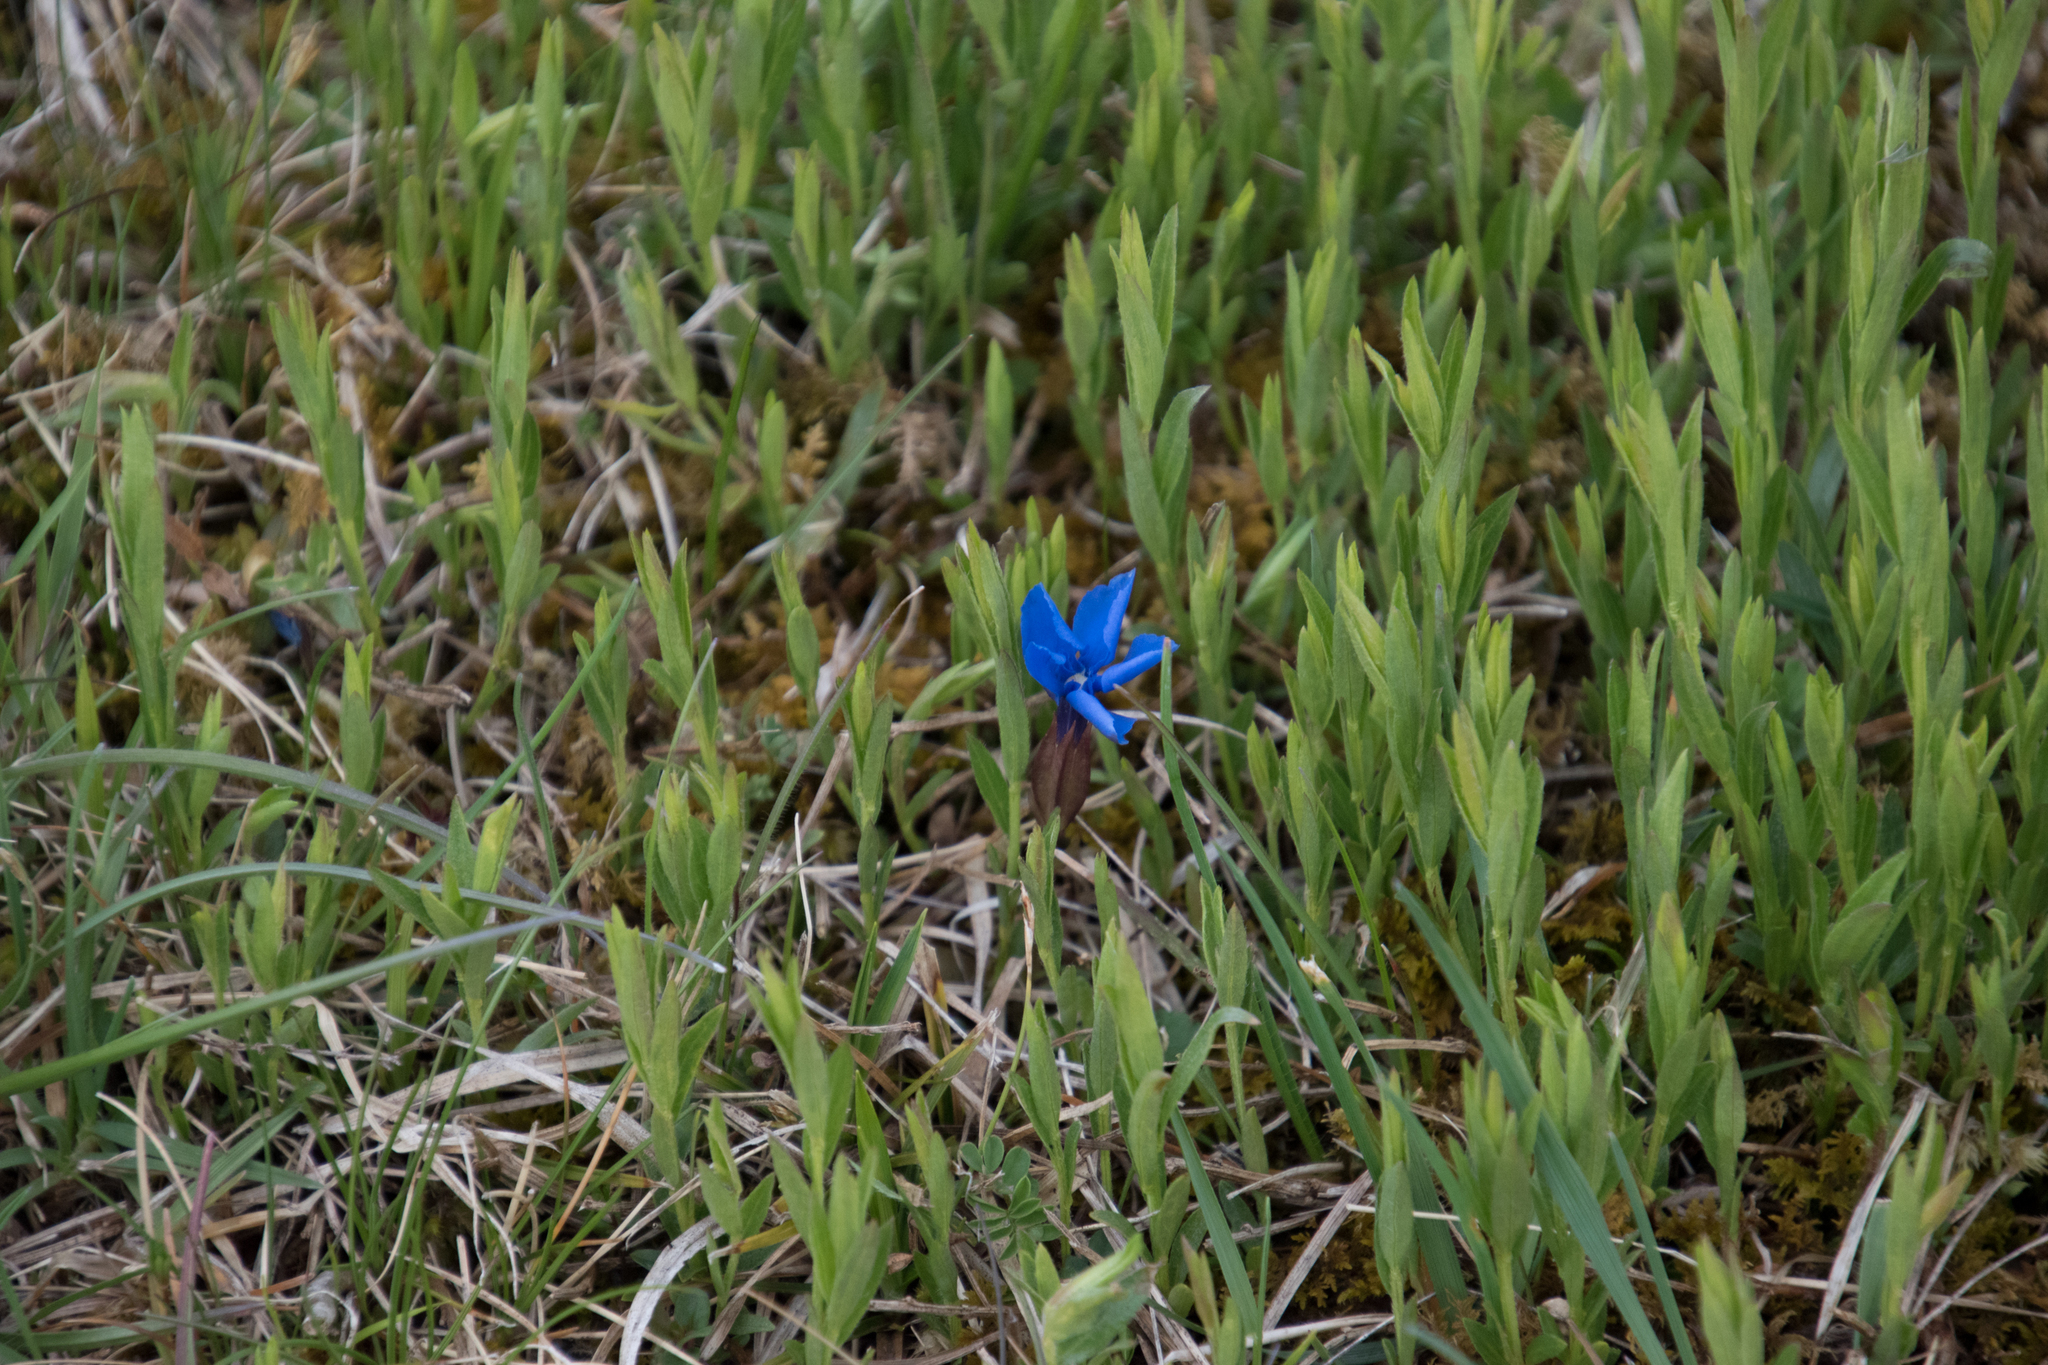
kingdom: Plantae
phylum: Tracheophyta
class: Magnoliopsida
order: Gentianales
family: Gentianaceae
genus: Gentiana
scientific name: Gentiana verna
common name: Spring gentian
